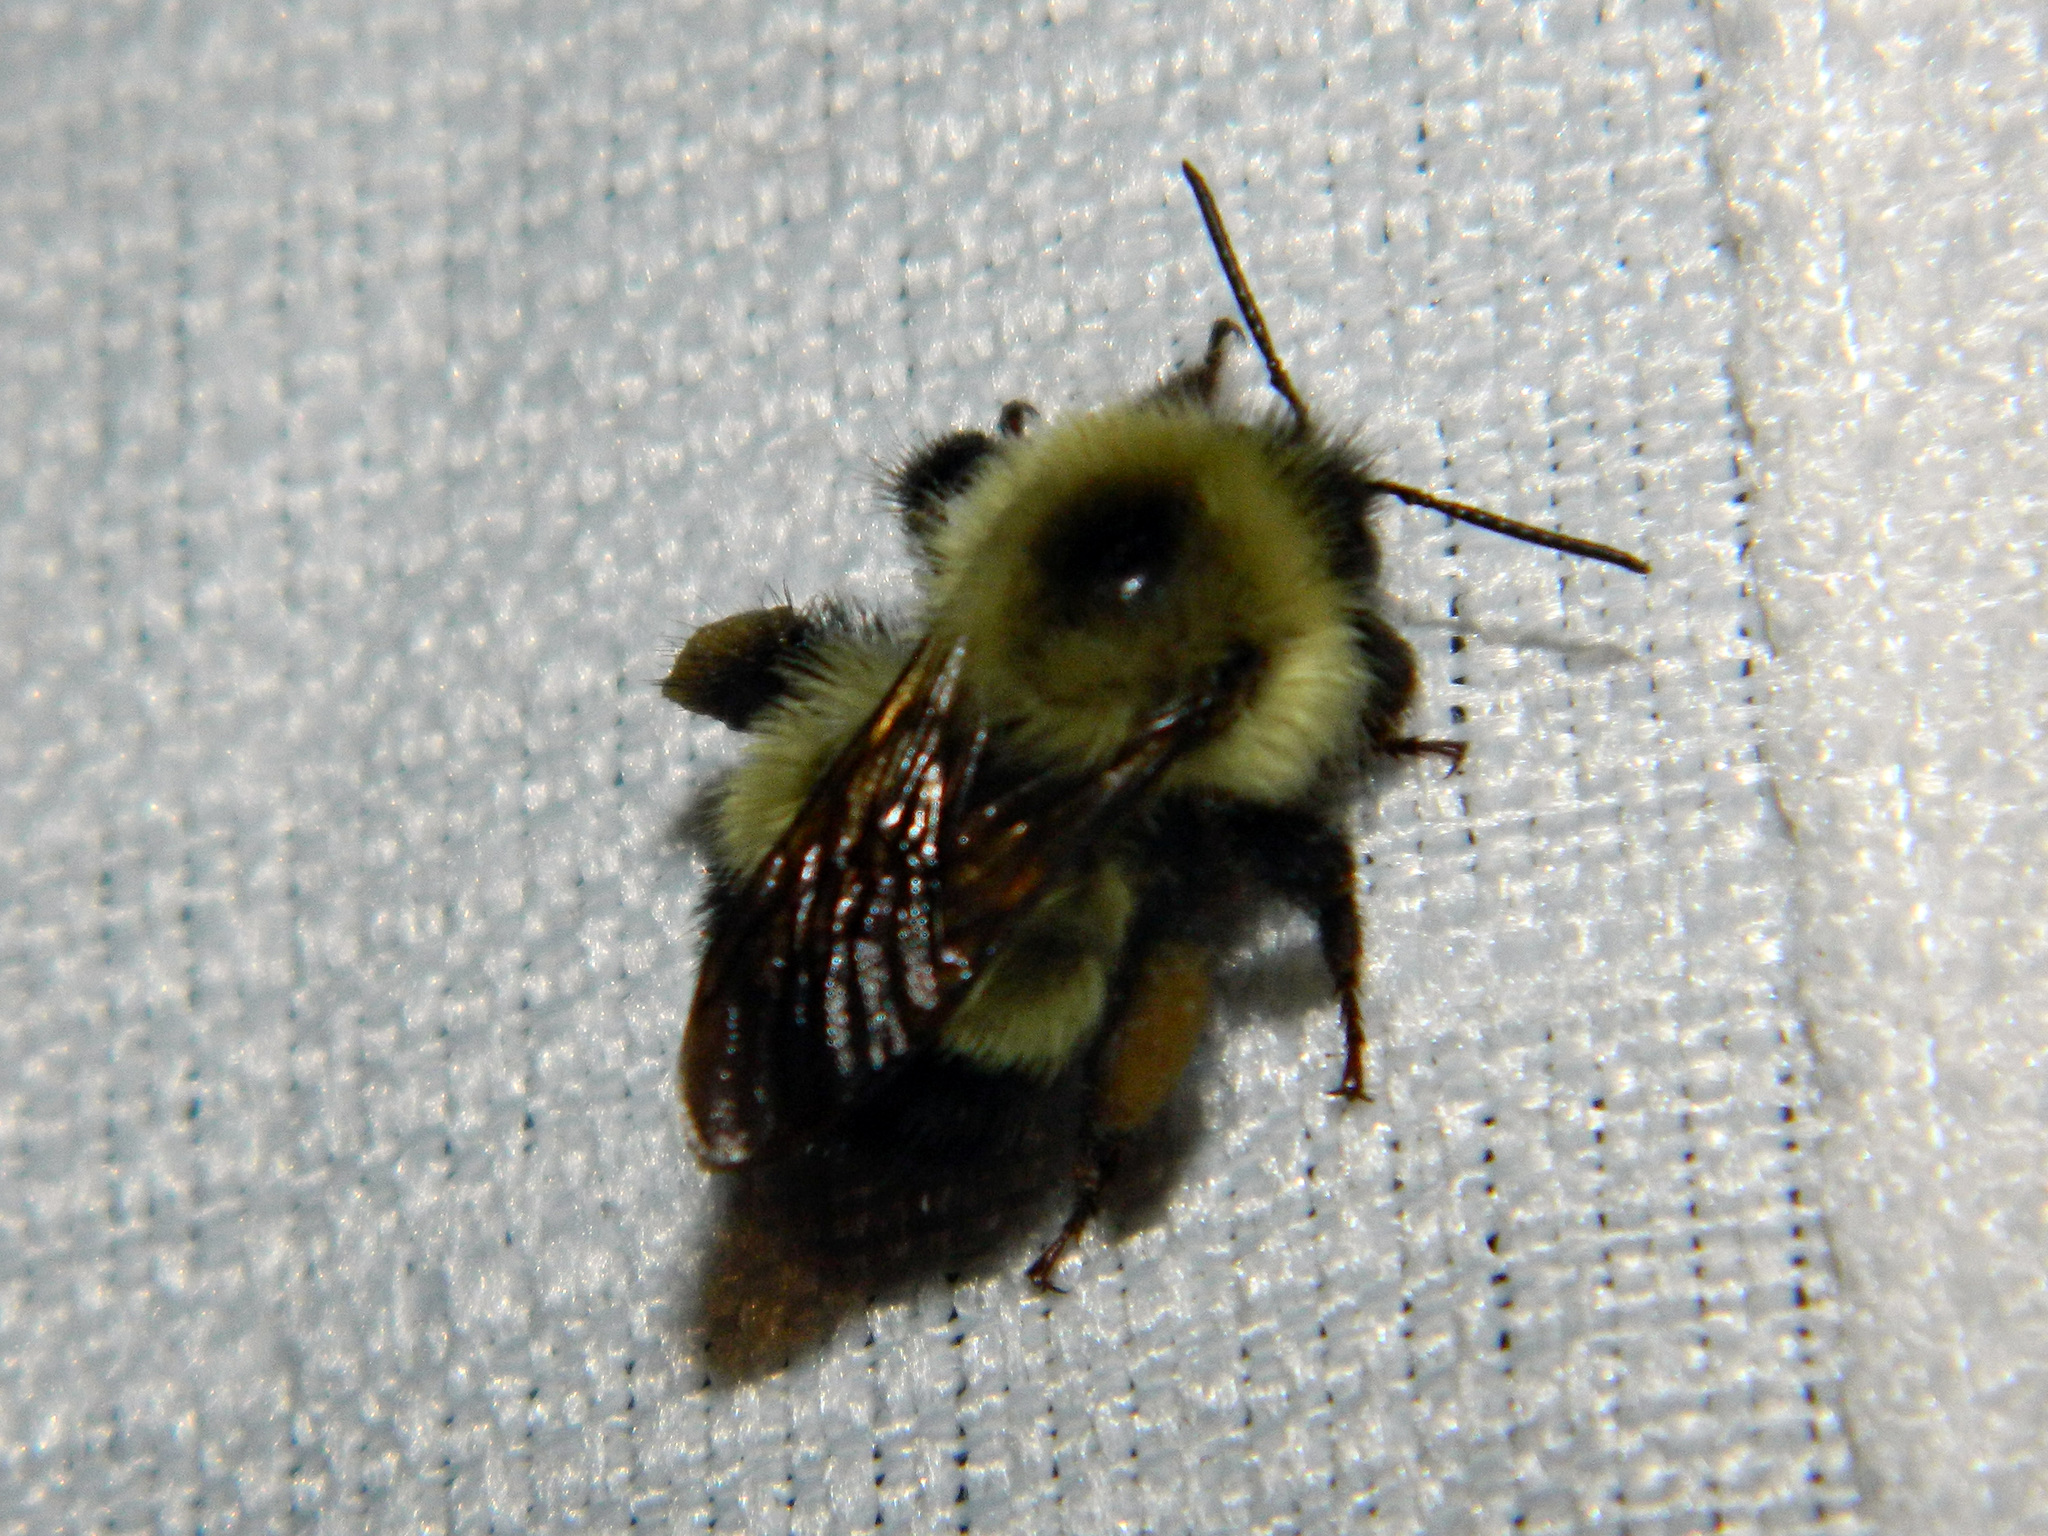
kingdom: Animalia
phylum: Arthropoda
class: Insecta
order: Hymenoptera
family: Apidae
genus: Bombus
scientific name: Bombus vagans
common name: Half-black bumble bee
